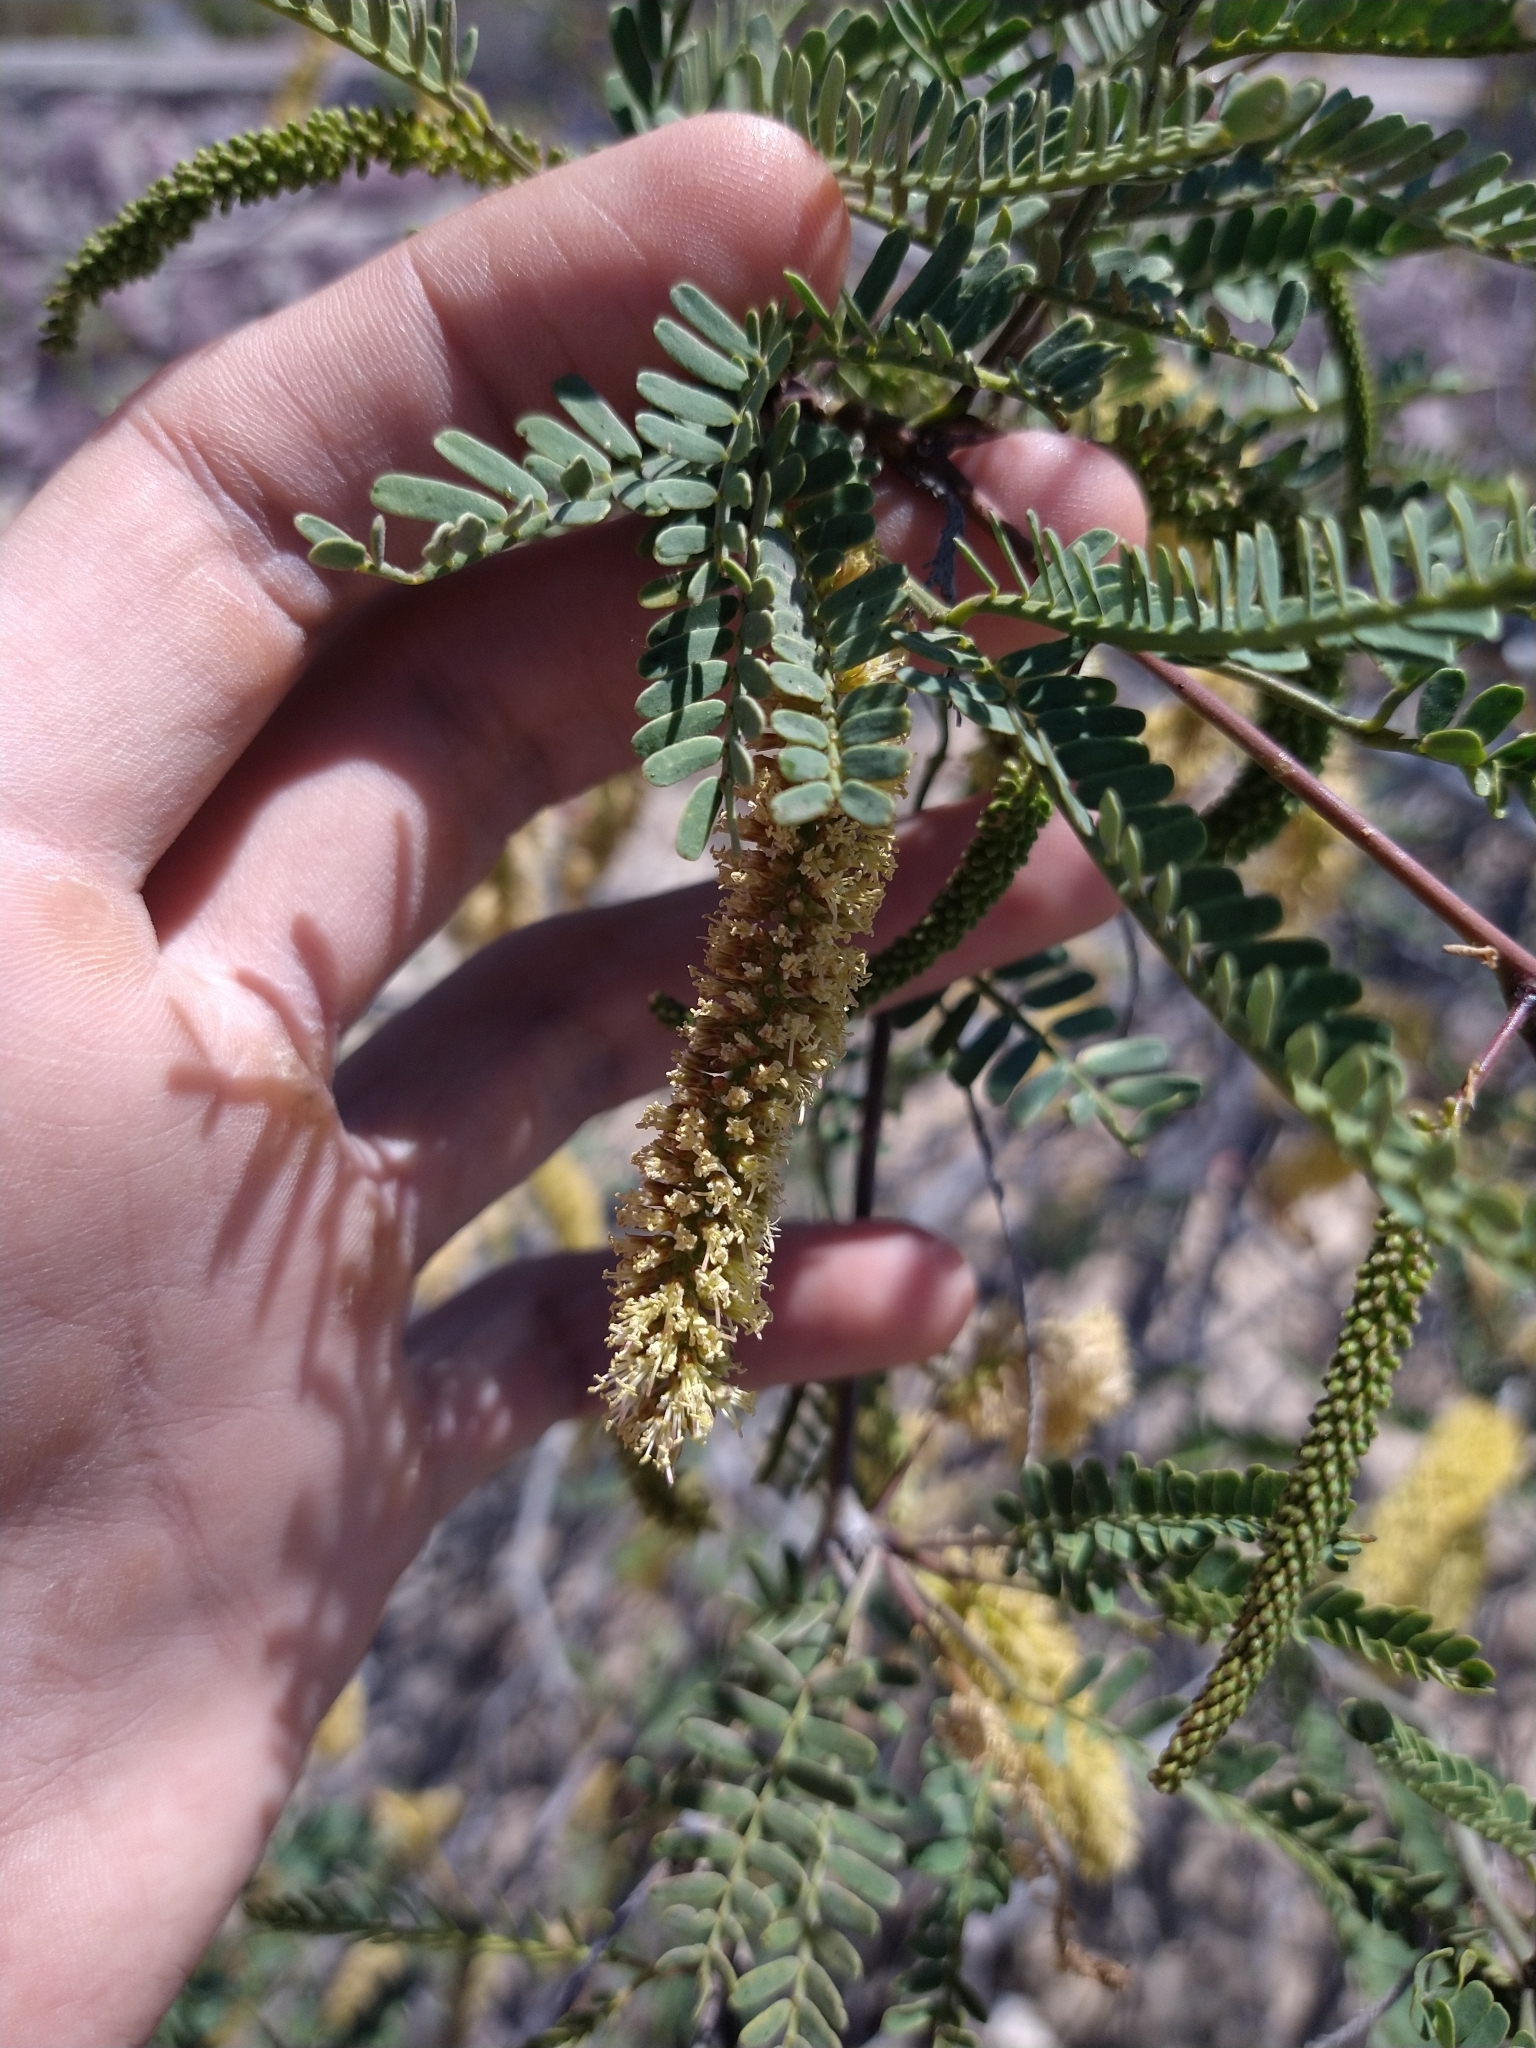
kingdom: Plantae
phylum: Tracheophyta
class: Magnoliopsida
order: Fabales
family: Fabaceae
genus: Prosopis
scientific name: Prosopis glandulosa
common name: Honey mesquite
